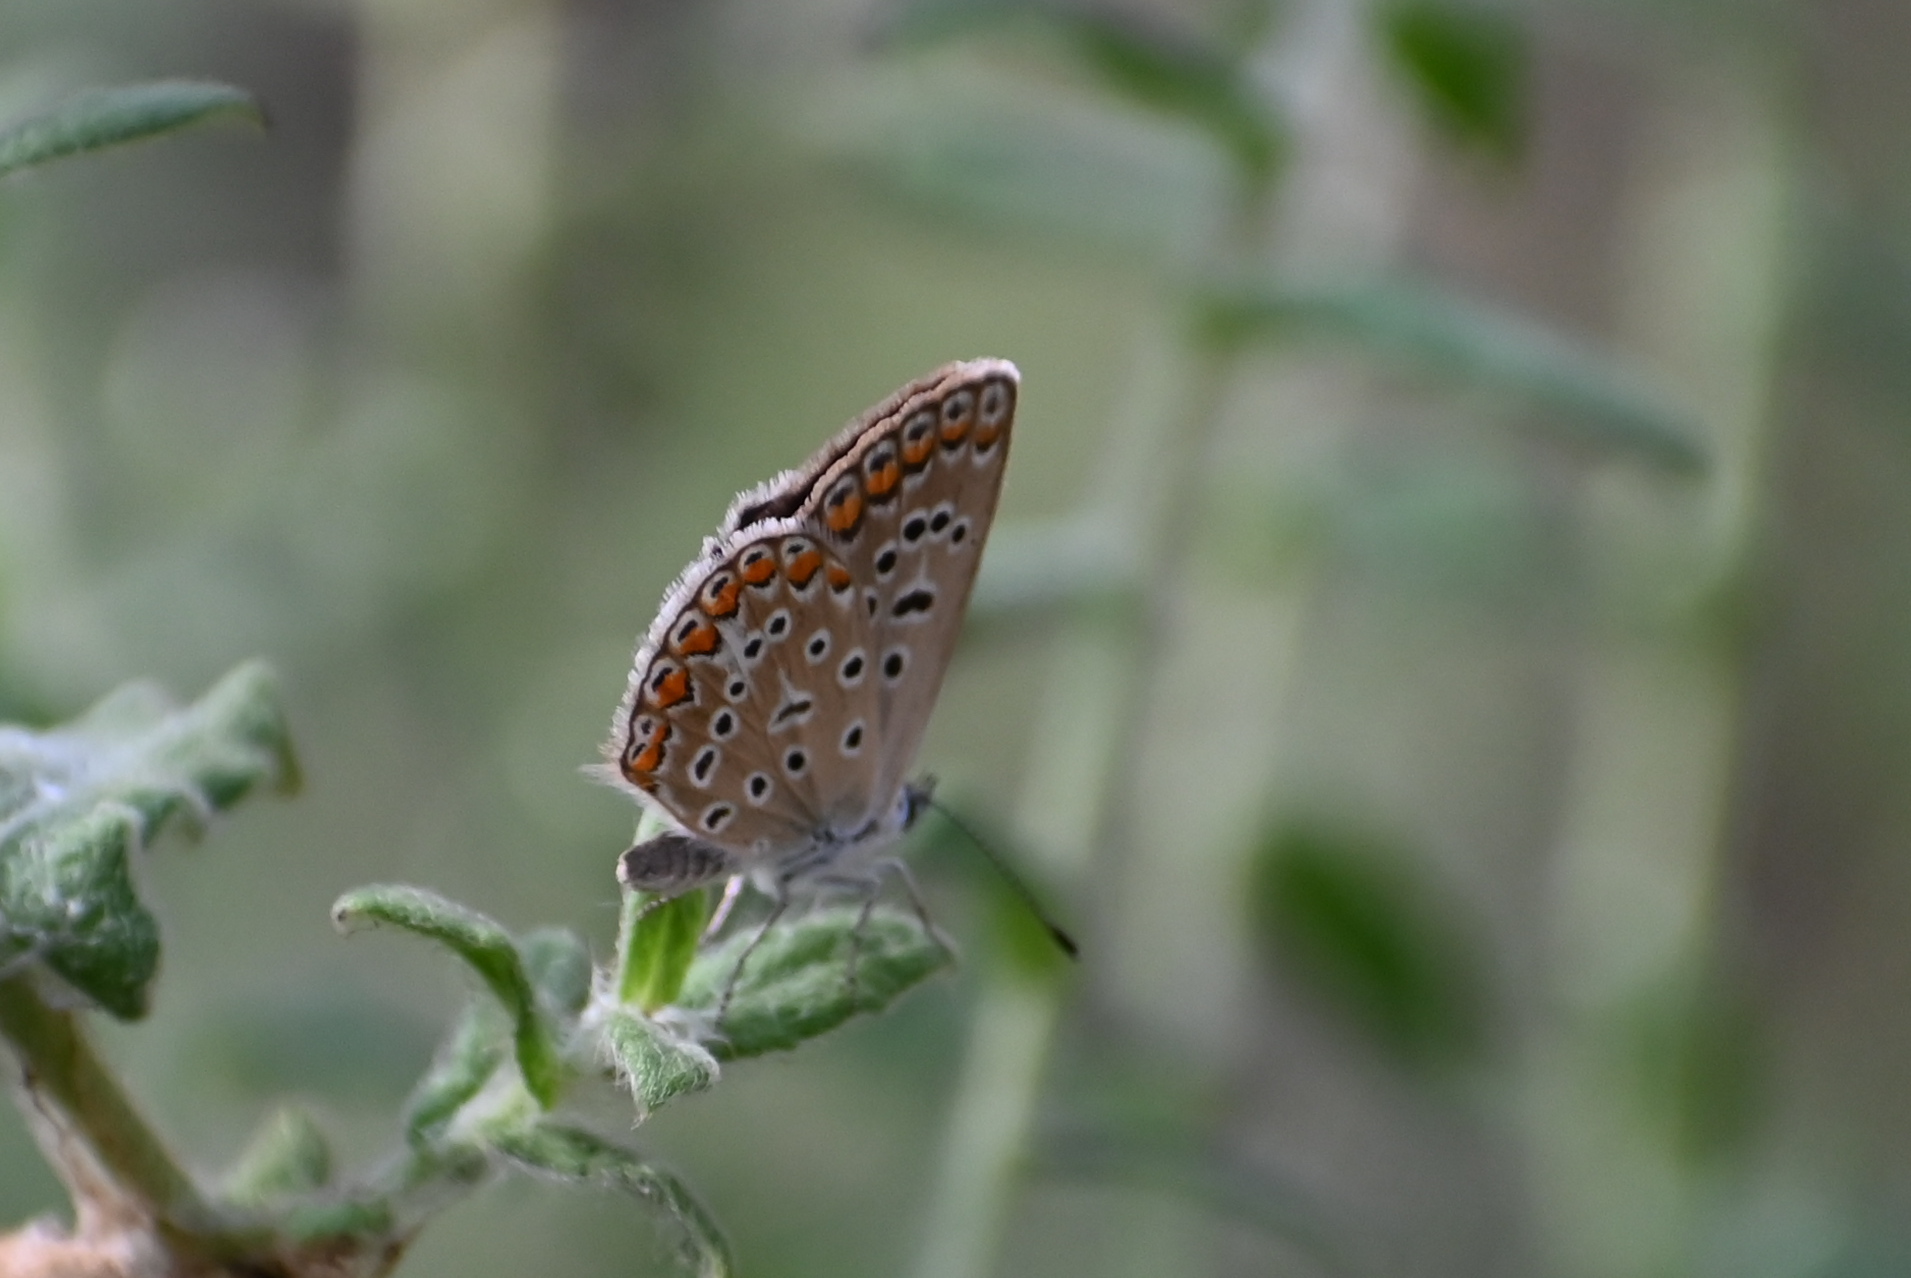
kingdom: Animalia
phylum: Arthropoda
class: Insecta
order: Lepidoptera
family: Lycaenidae
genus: Polyommatus
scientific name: Polyommatus icarus
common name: Common blue
